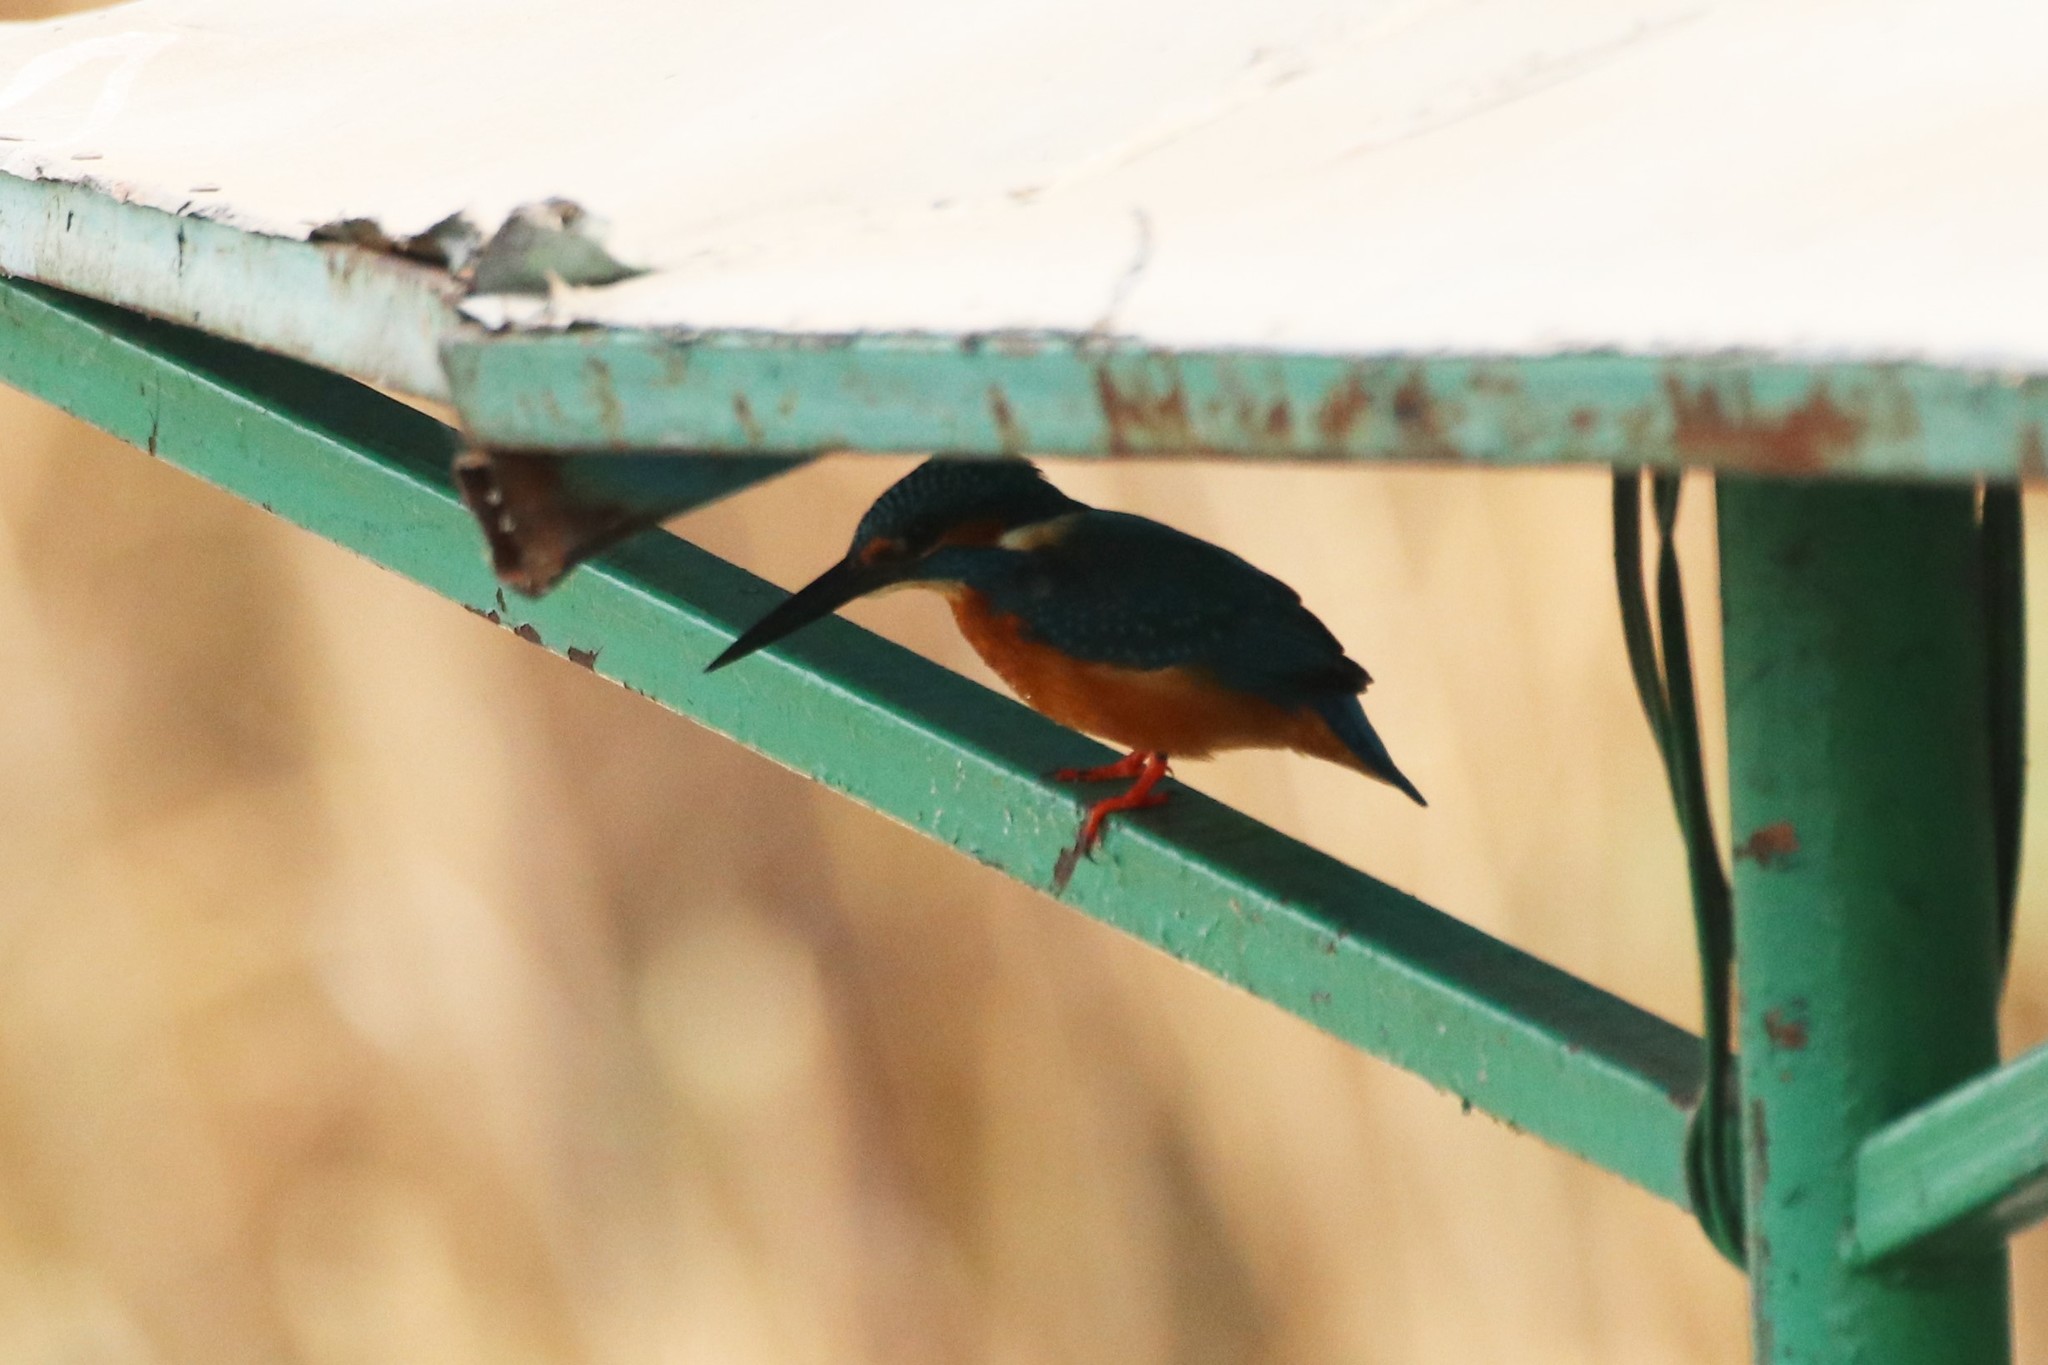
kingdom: Animalia
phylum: Chordata
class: Aves
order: Coraciiformes
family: Alcedinidae
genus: Alcedo
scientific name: Alcedo atthis
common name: Common kingfisher
